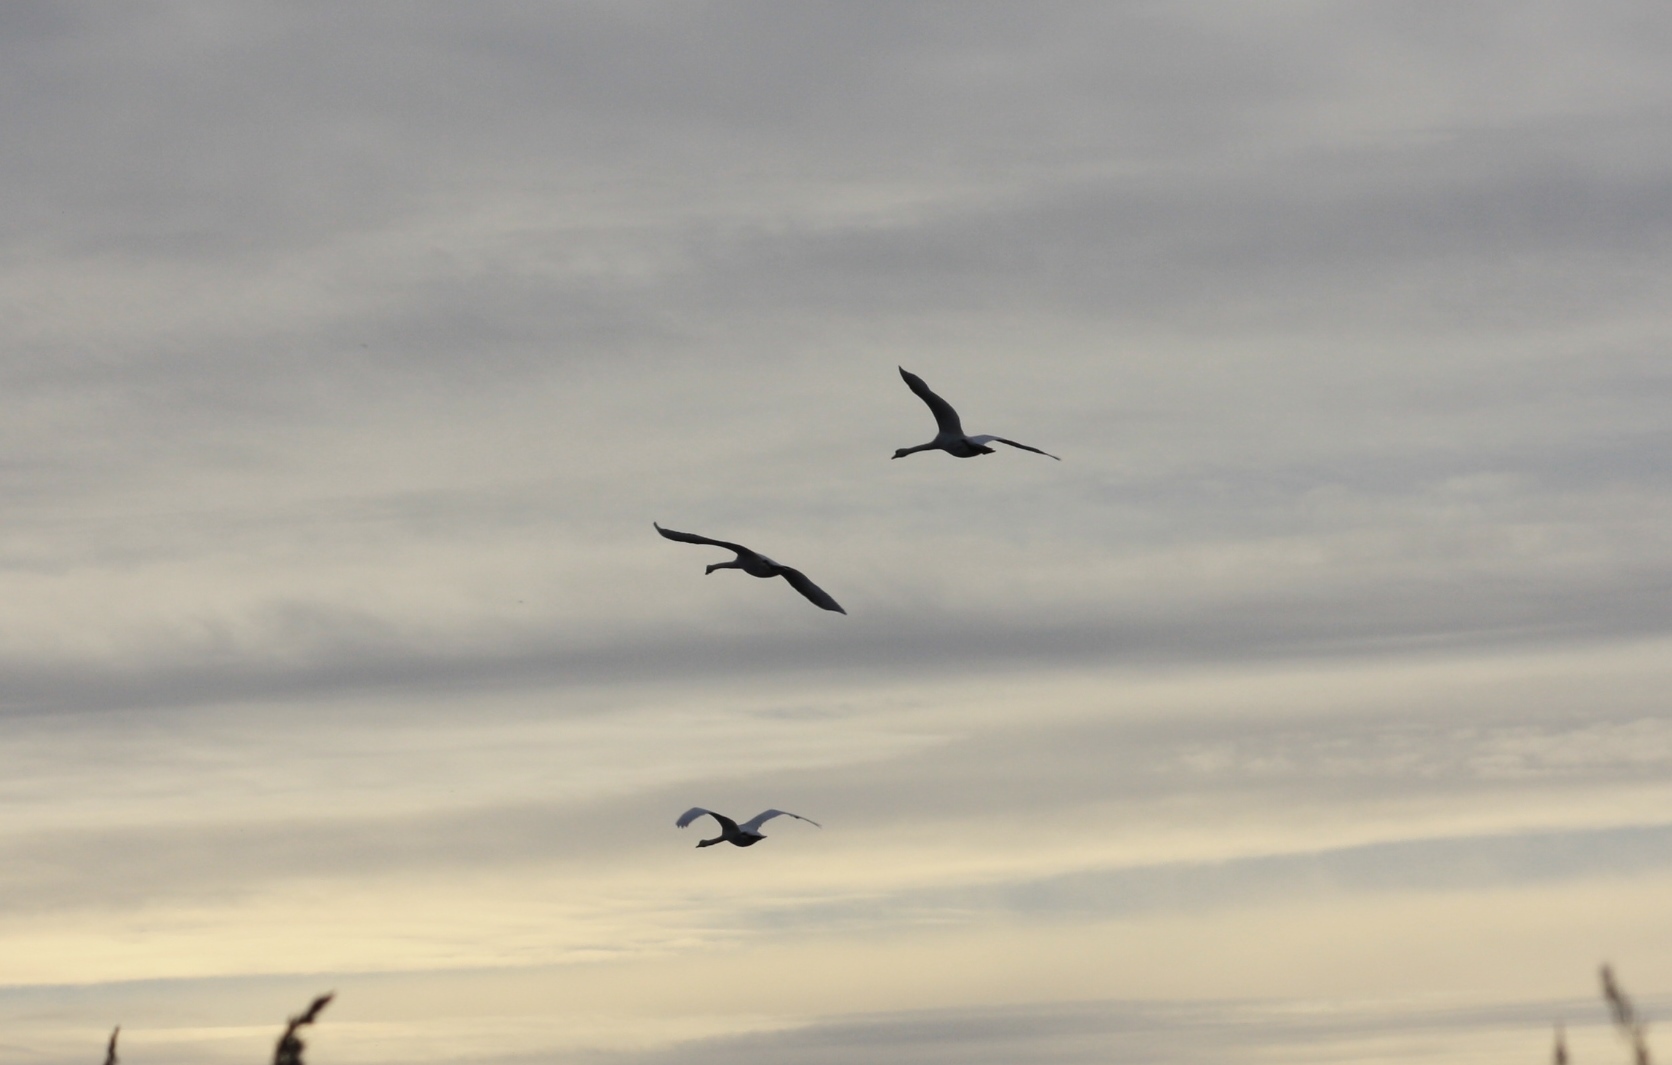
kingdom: Animalia
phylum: Chordata
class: Aves
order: Anseriformes
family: Anatidae
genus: Cygnus
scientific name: Cygnus olor
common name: Mute swan
